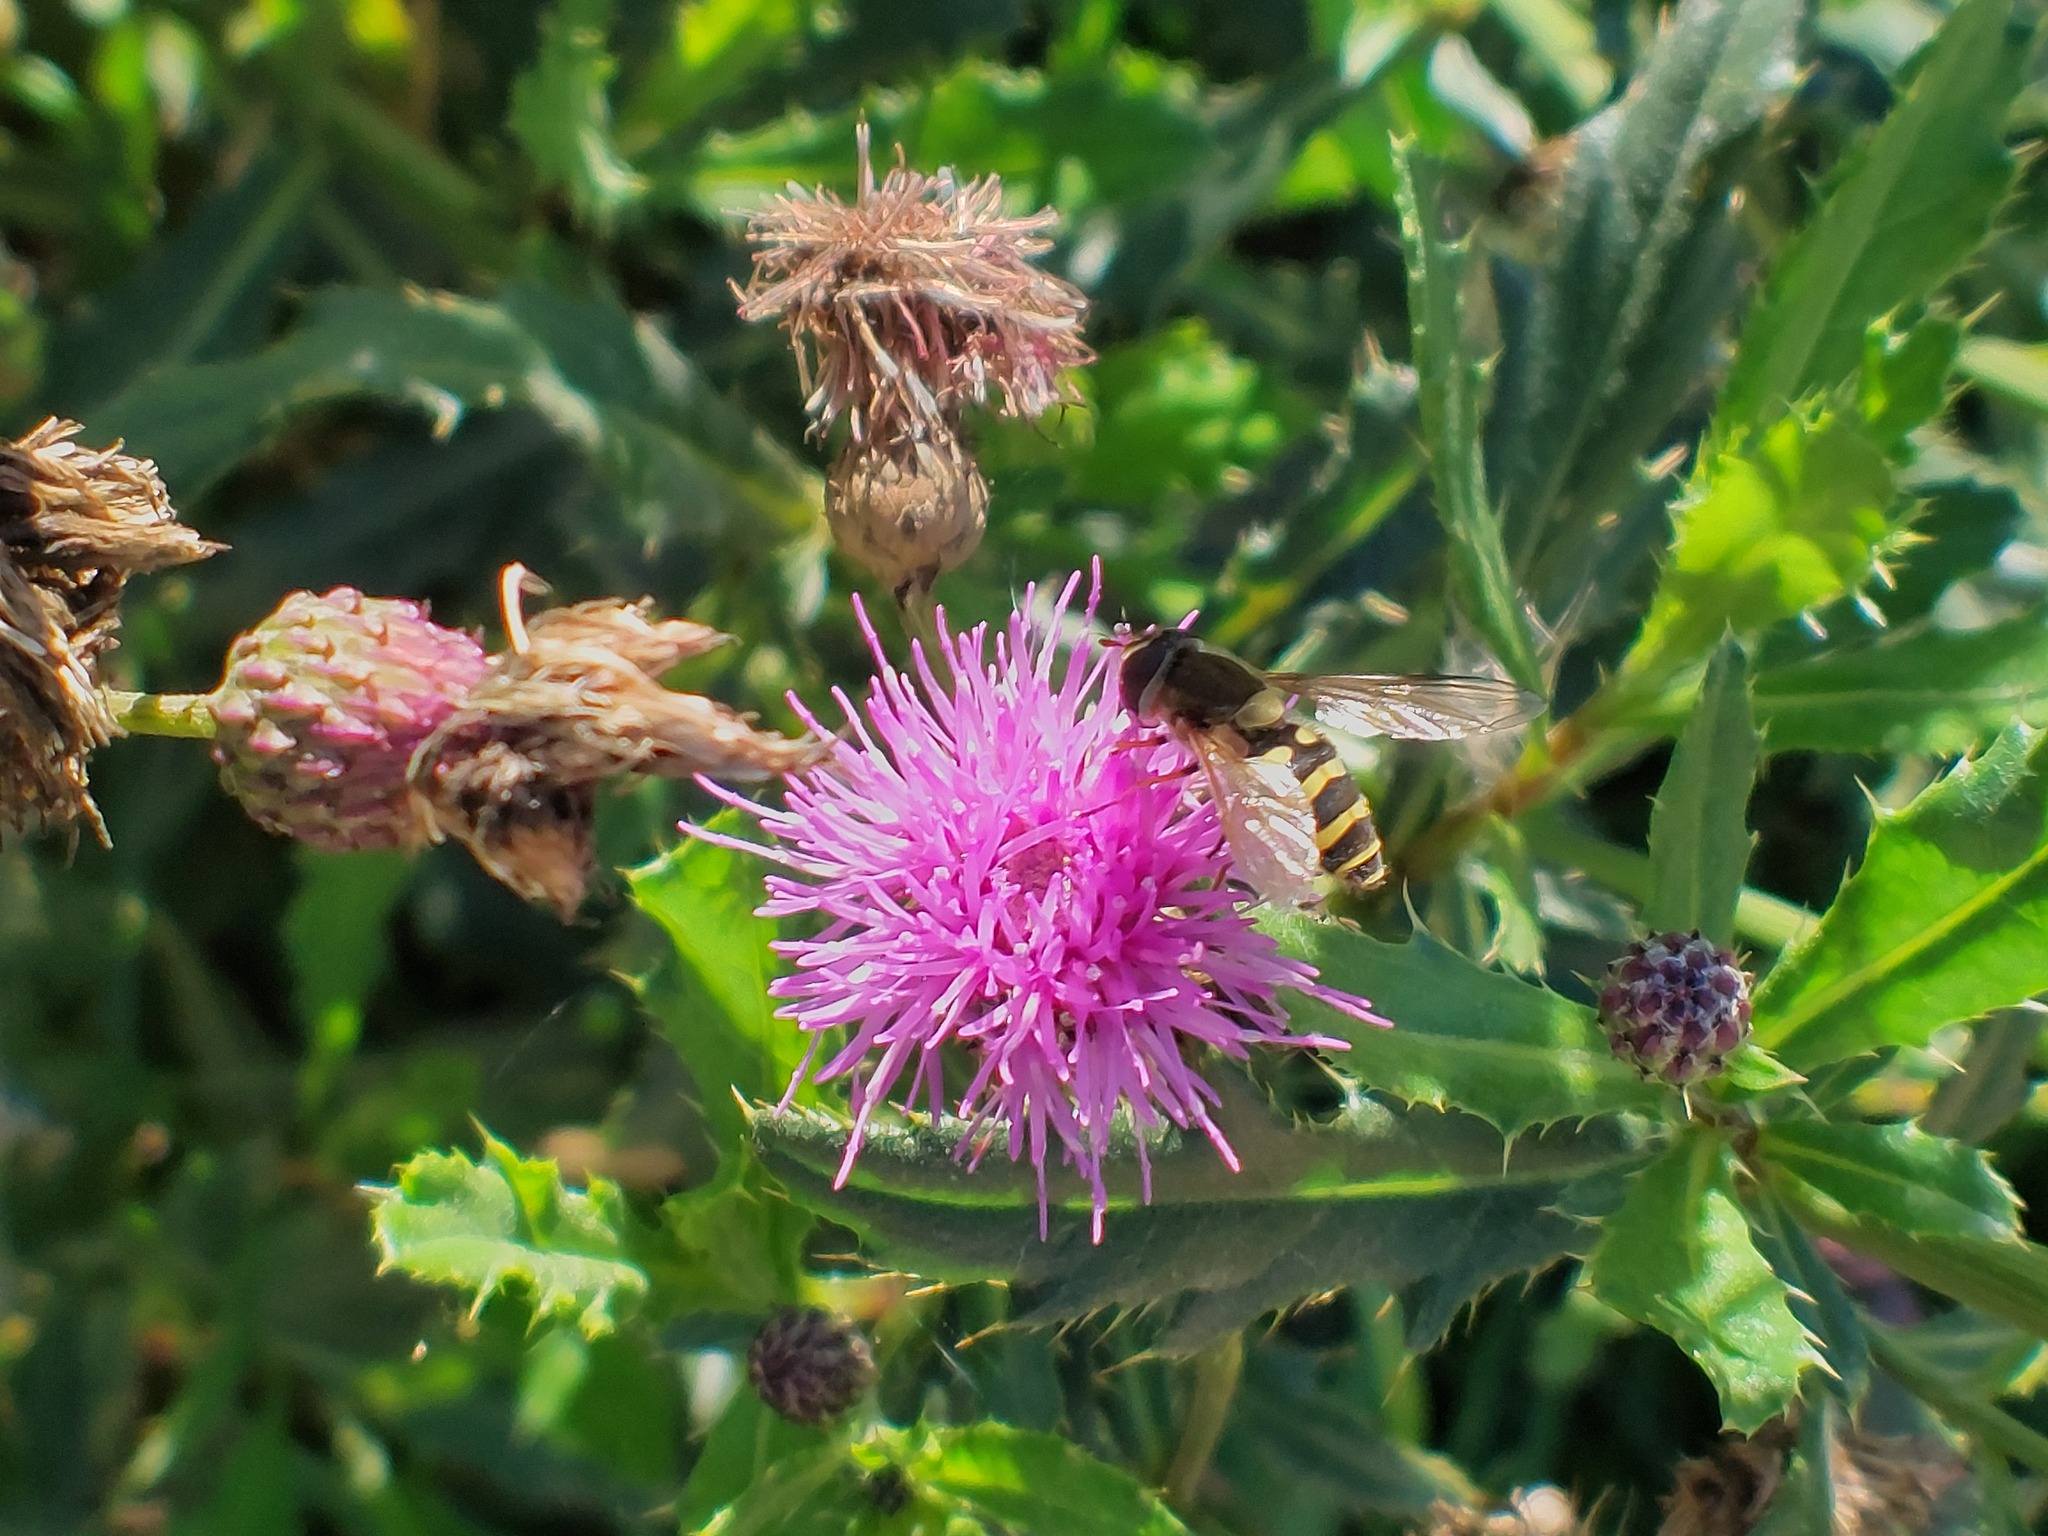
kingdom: Animalia
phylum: Arthropoda
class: Insecta
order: Diptera
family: Syrphidae
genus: Syrphus
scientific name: Syrphus
